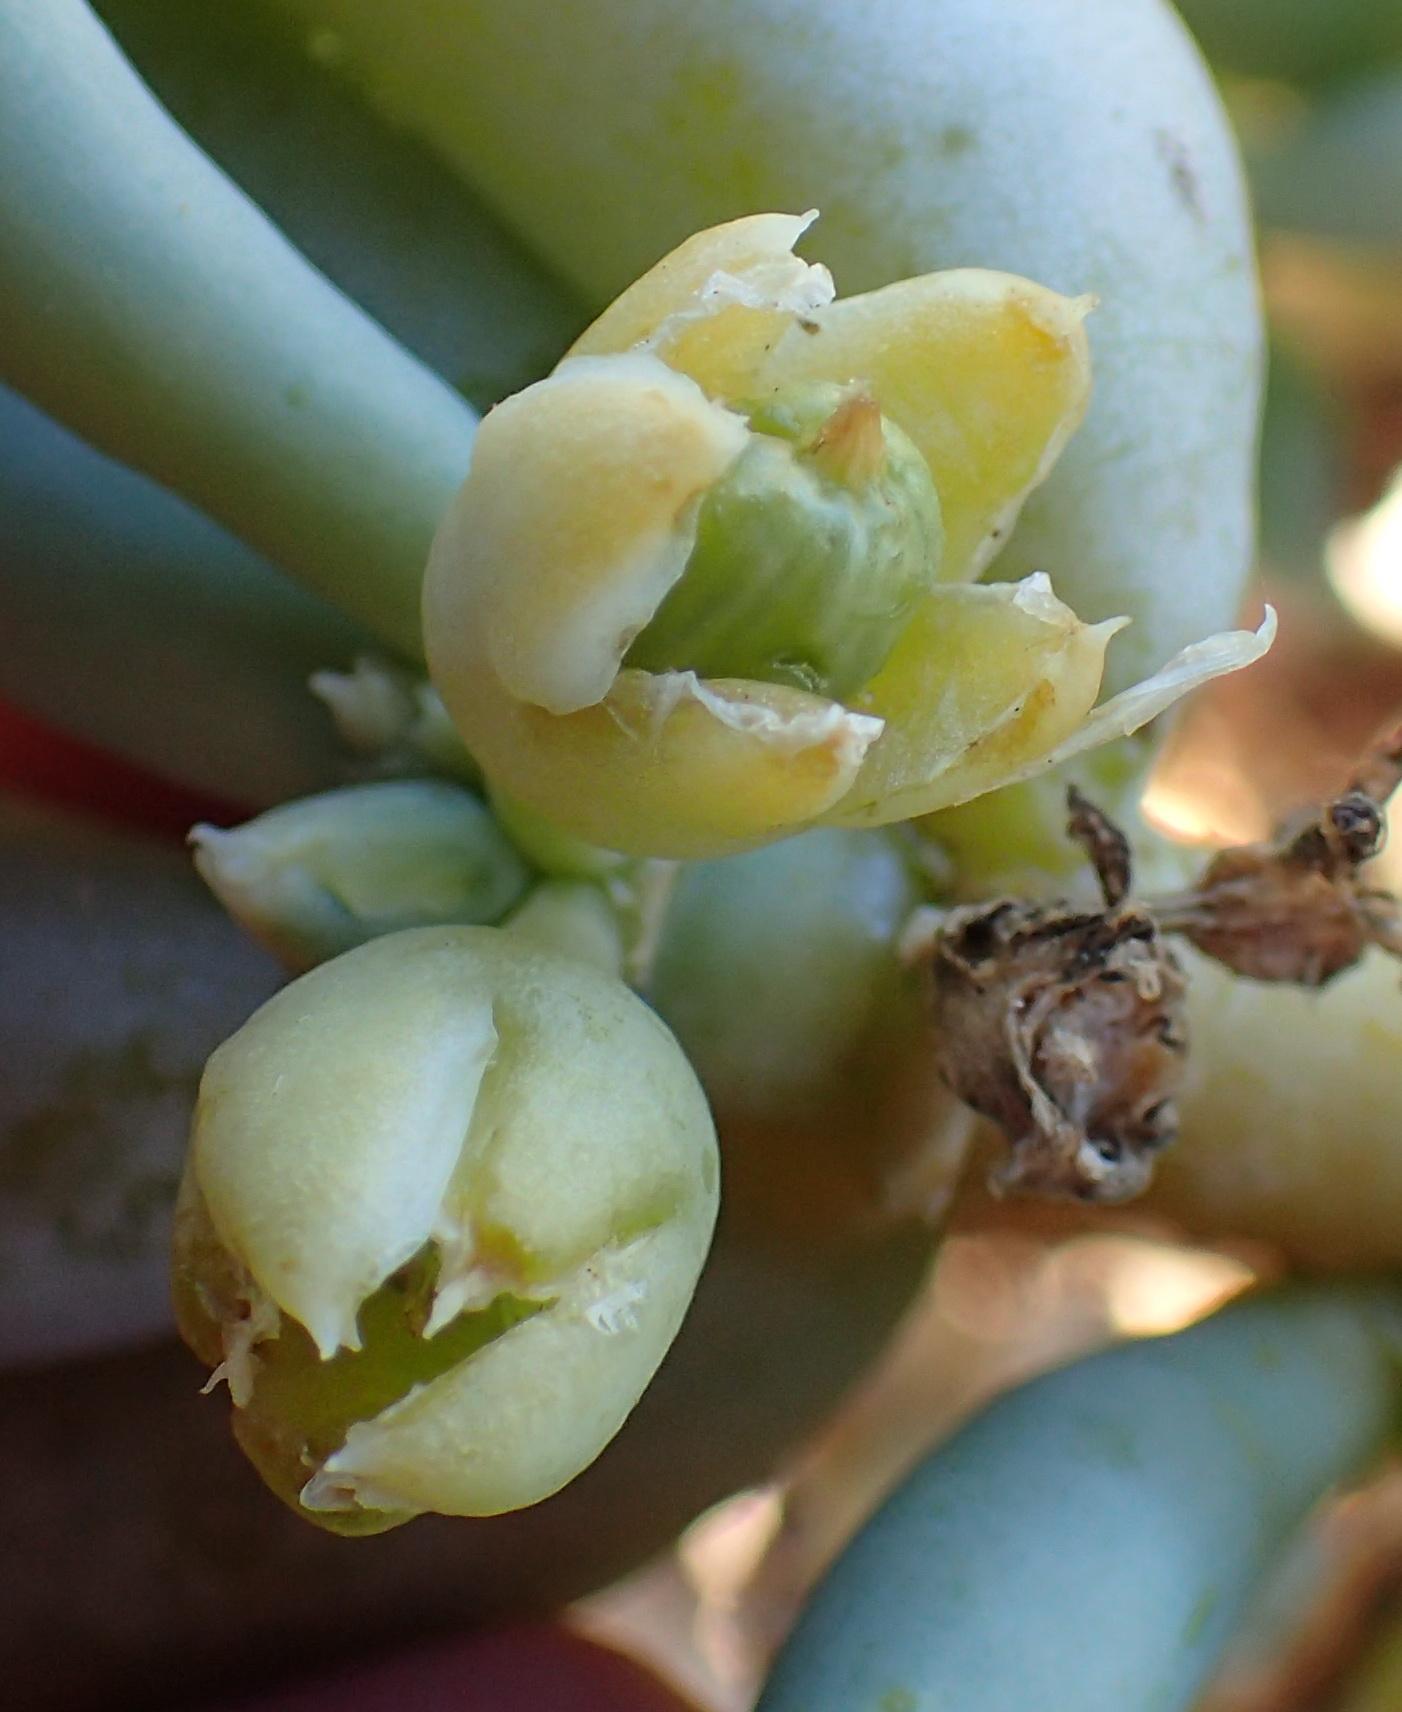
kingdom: Plantae
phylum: Tracheophyta
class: Magnoliopsida
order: Zygophyllales
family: Zygophyllaceae
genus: Augea
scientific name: Augea capensis
